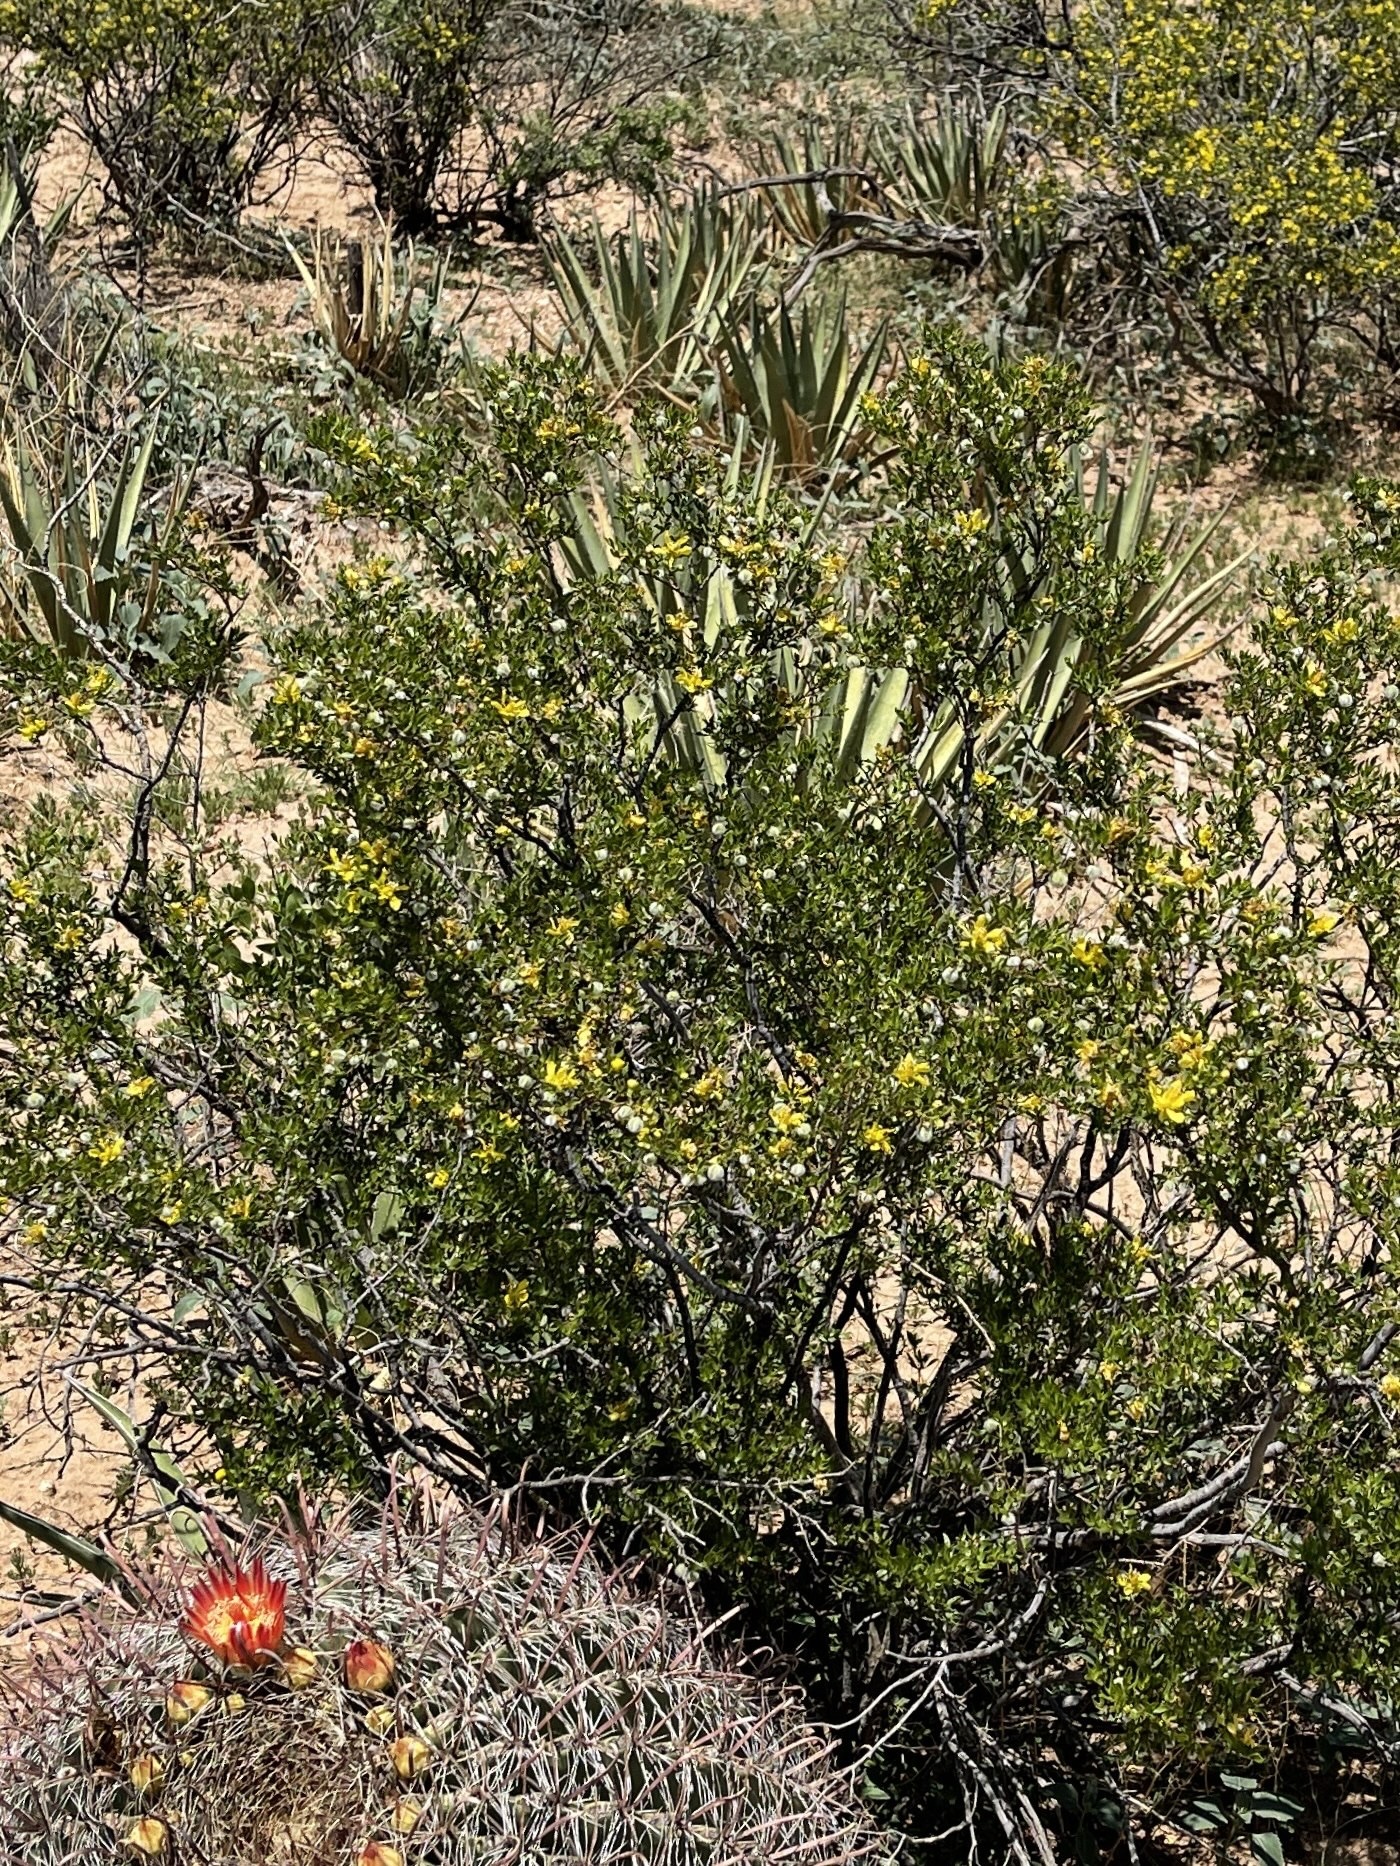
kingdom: Plantae
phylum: Tracheophyta
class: Magnoliopsida
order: Zygophyllales
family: Zygophyllaceae
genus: Larrea
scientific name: Larrea tridentata
